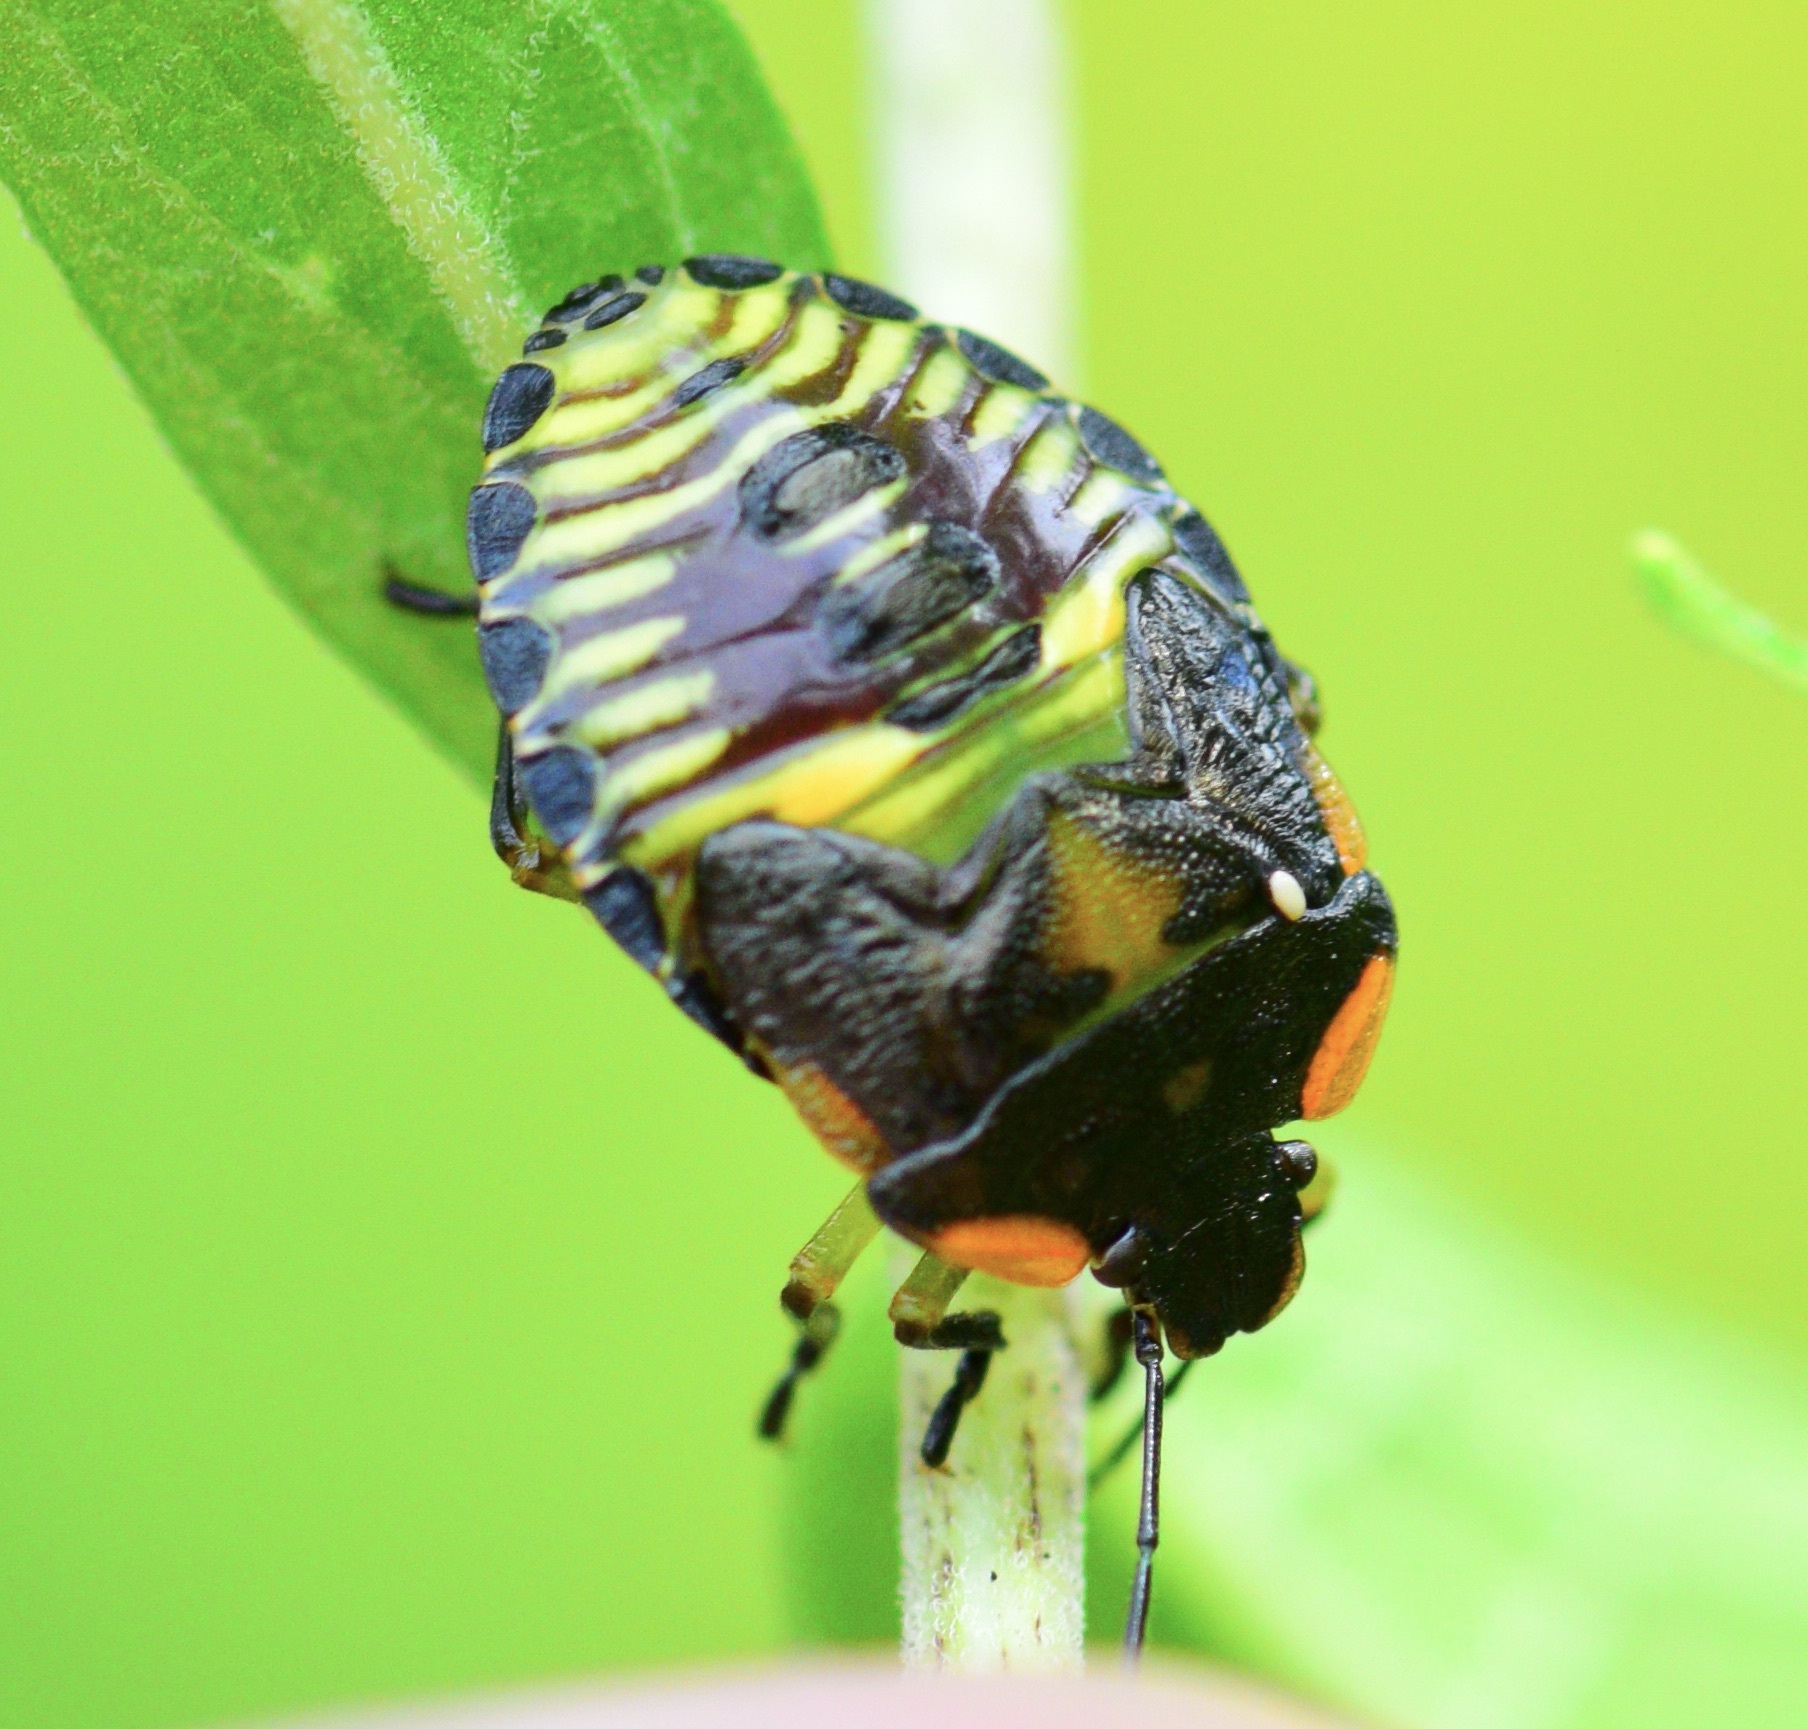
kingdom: Animalia
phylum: Arthropoda
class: Insecta
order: Hemiptera
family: Pentatomidae
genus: Chinavia
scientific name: Chinavia hilaris
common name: Green stink bug
